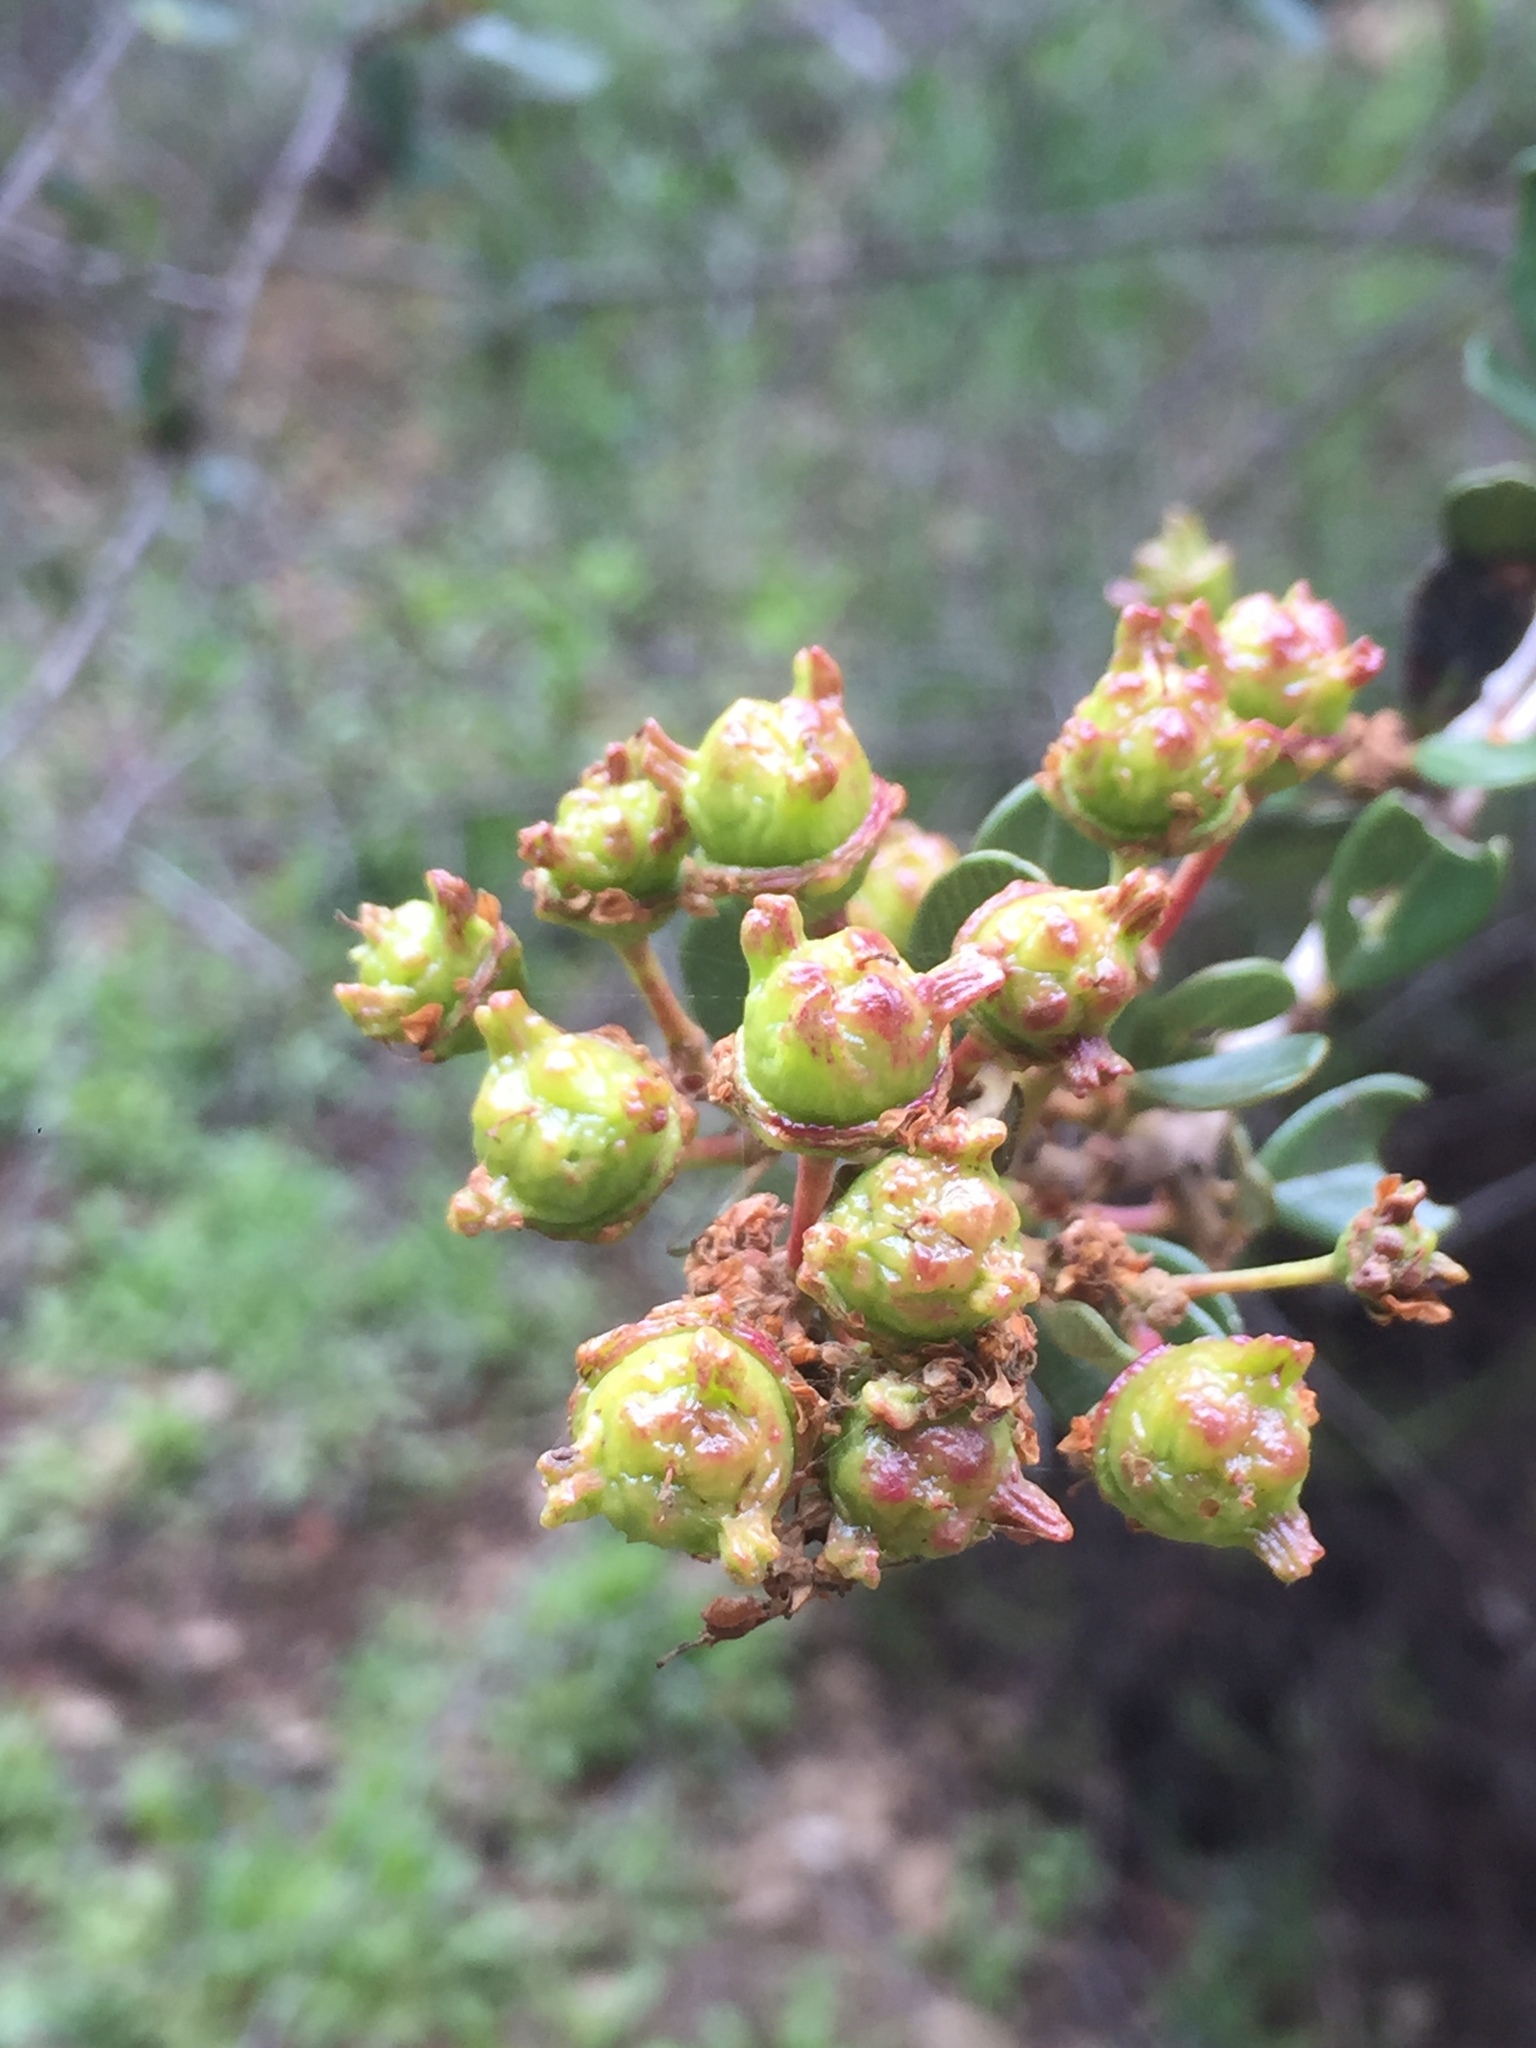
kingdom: Plantae
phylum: Tracheophyta
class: Magnoliopsida
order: Rosales
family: Rhamnaceae
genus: Ceanothus
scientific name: Ceanothus megacarpus
